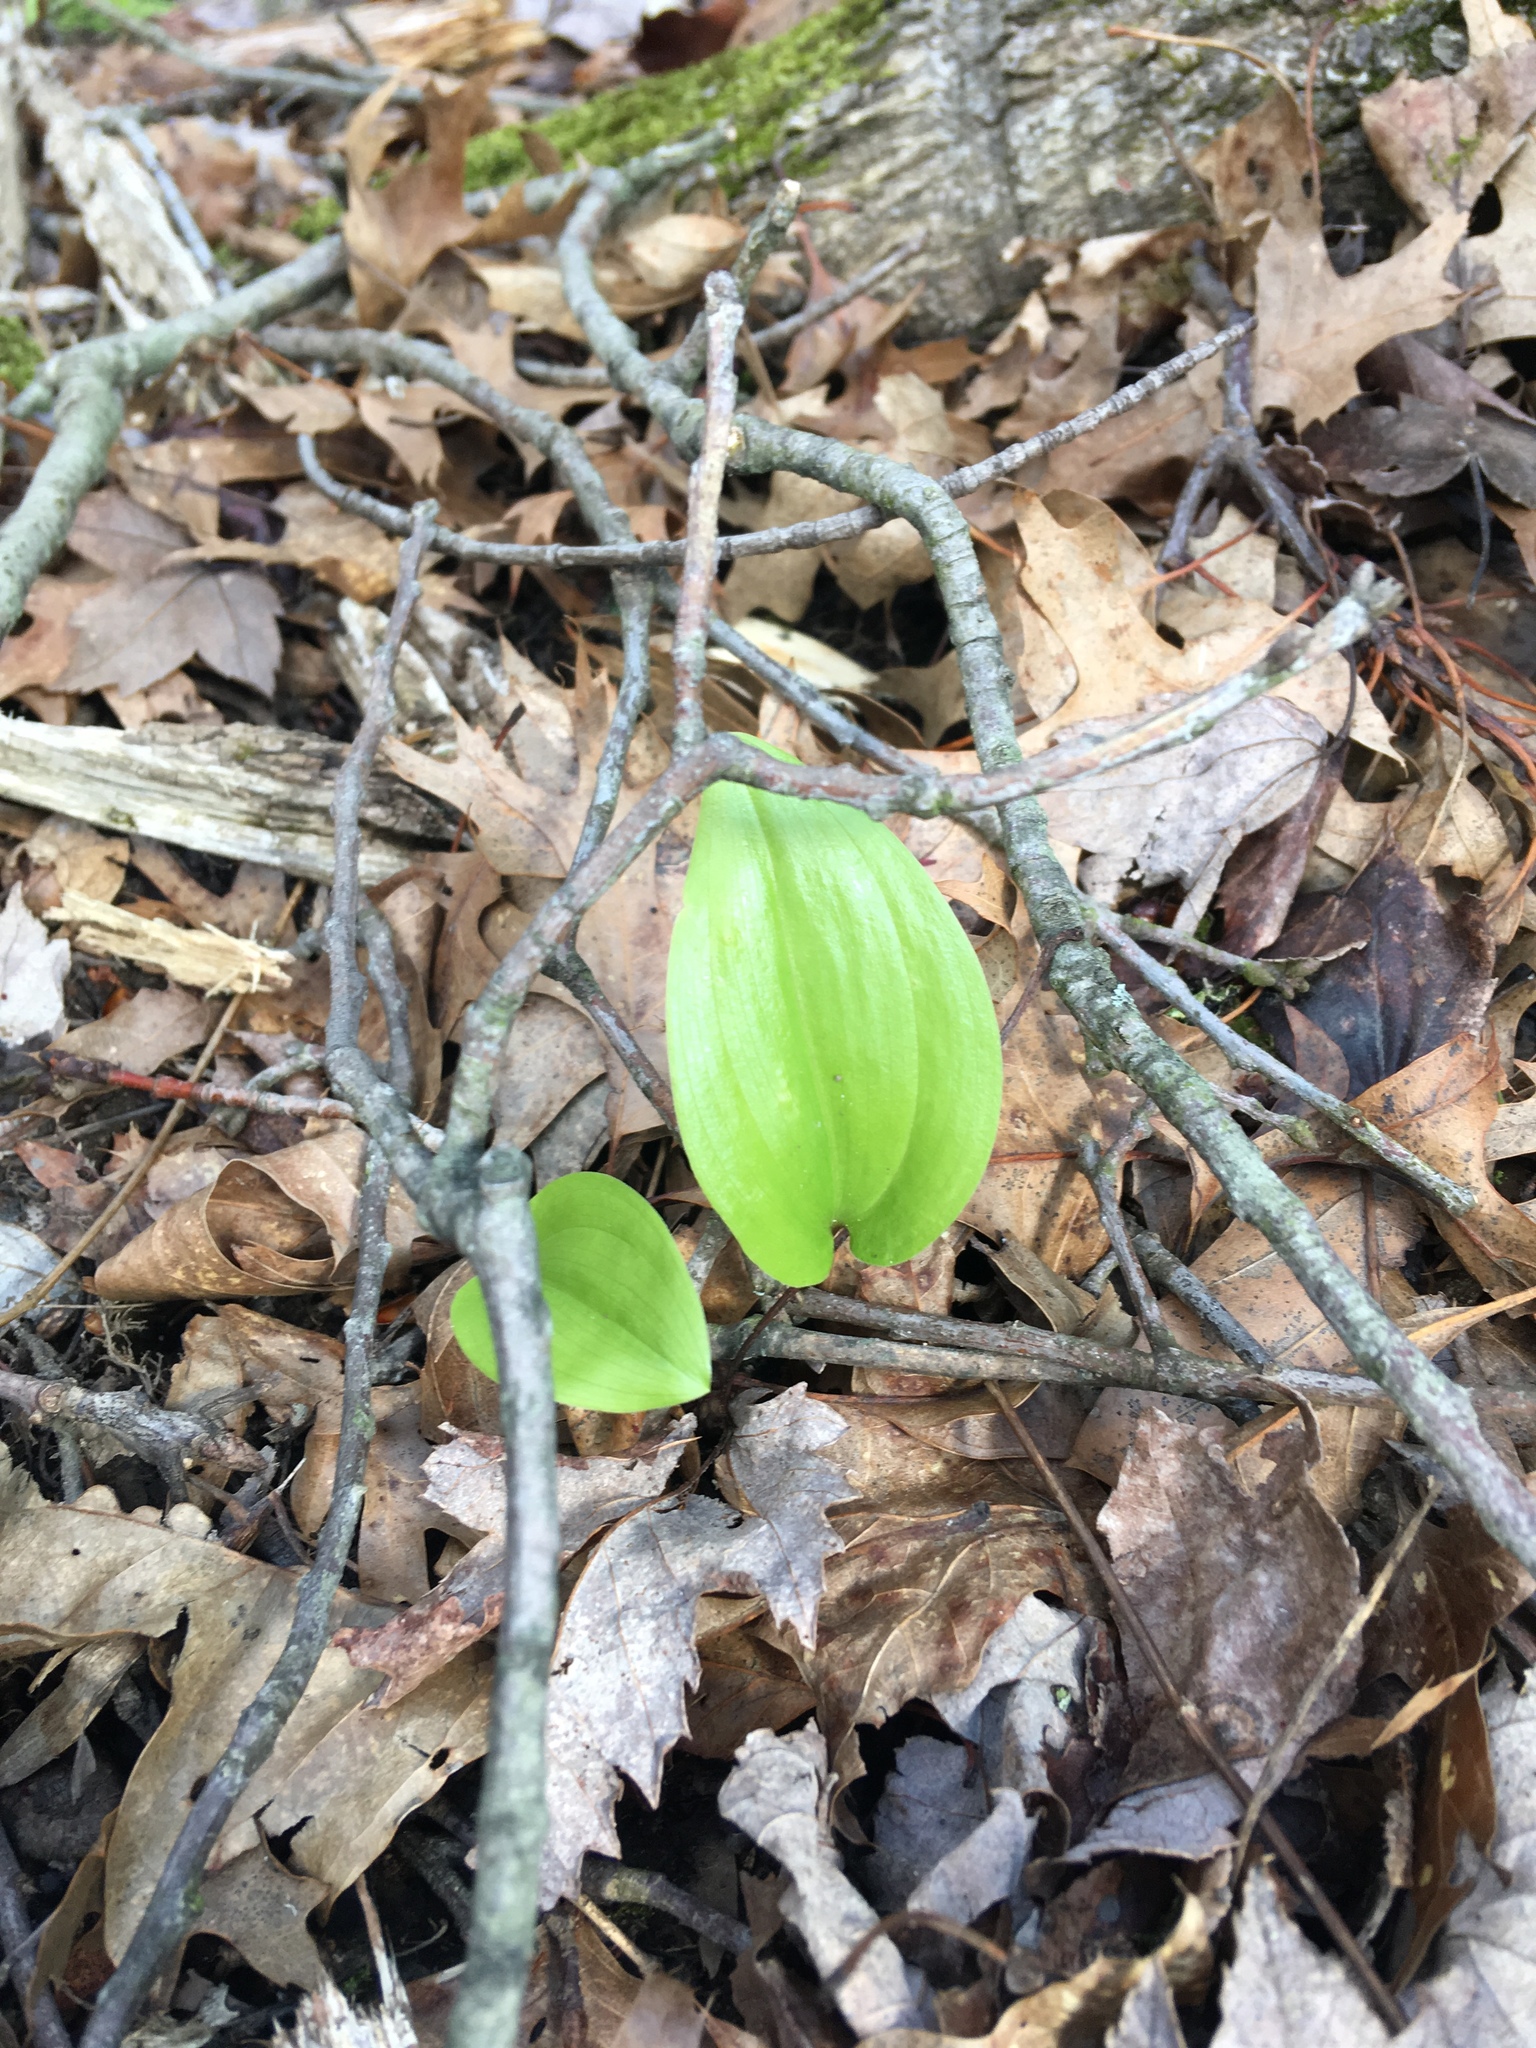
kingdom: Plantae
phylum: Tracheophyta
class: Liliopsida
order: Asparagales
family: Asparagaceae
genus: Maianthemum
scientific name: Maianthemum canadense
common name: False lily-of-the-valley
